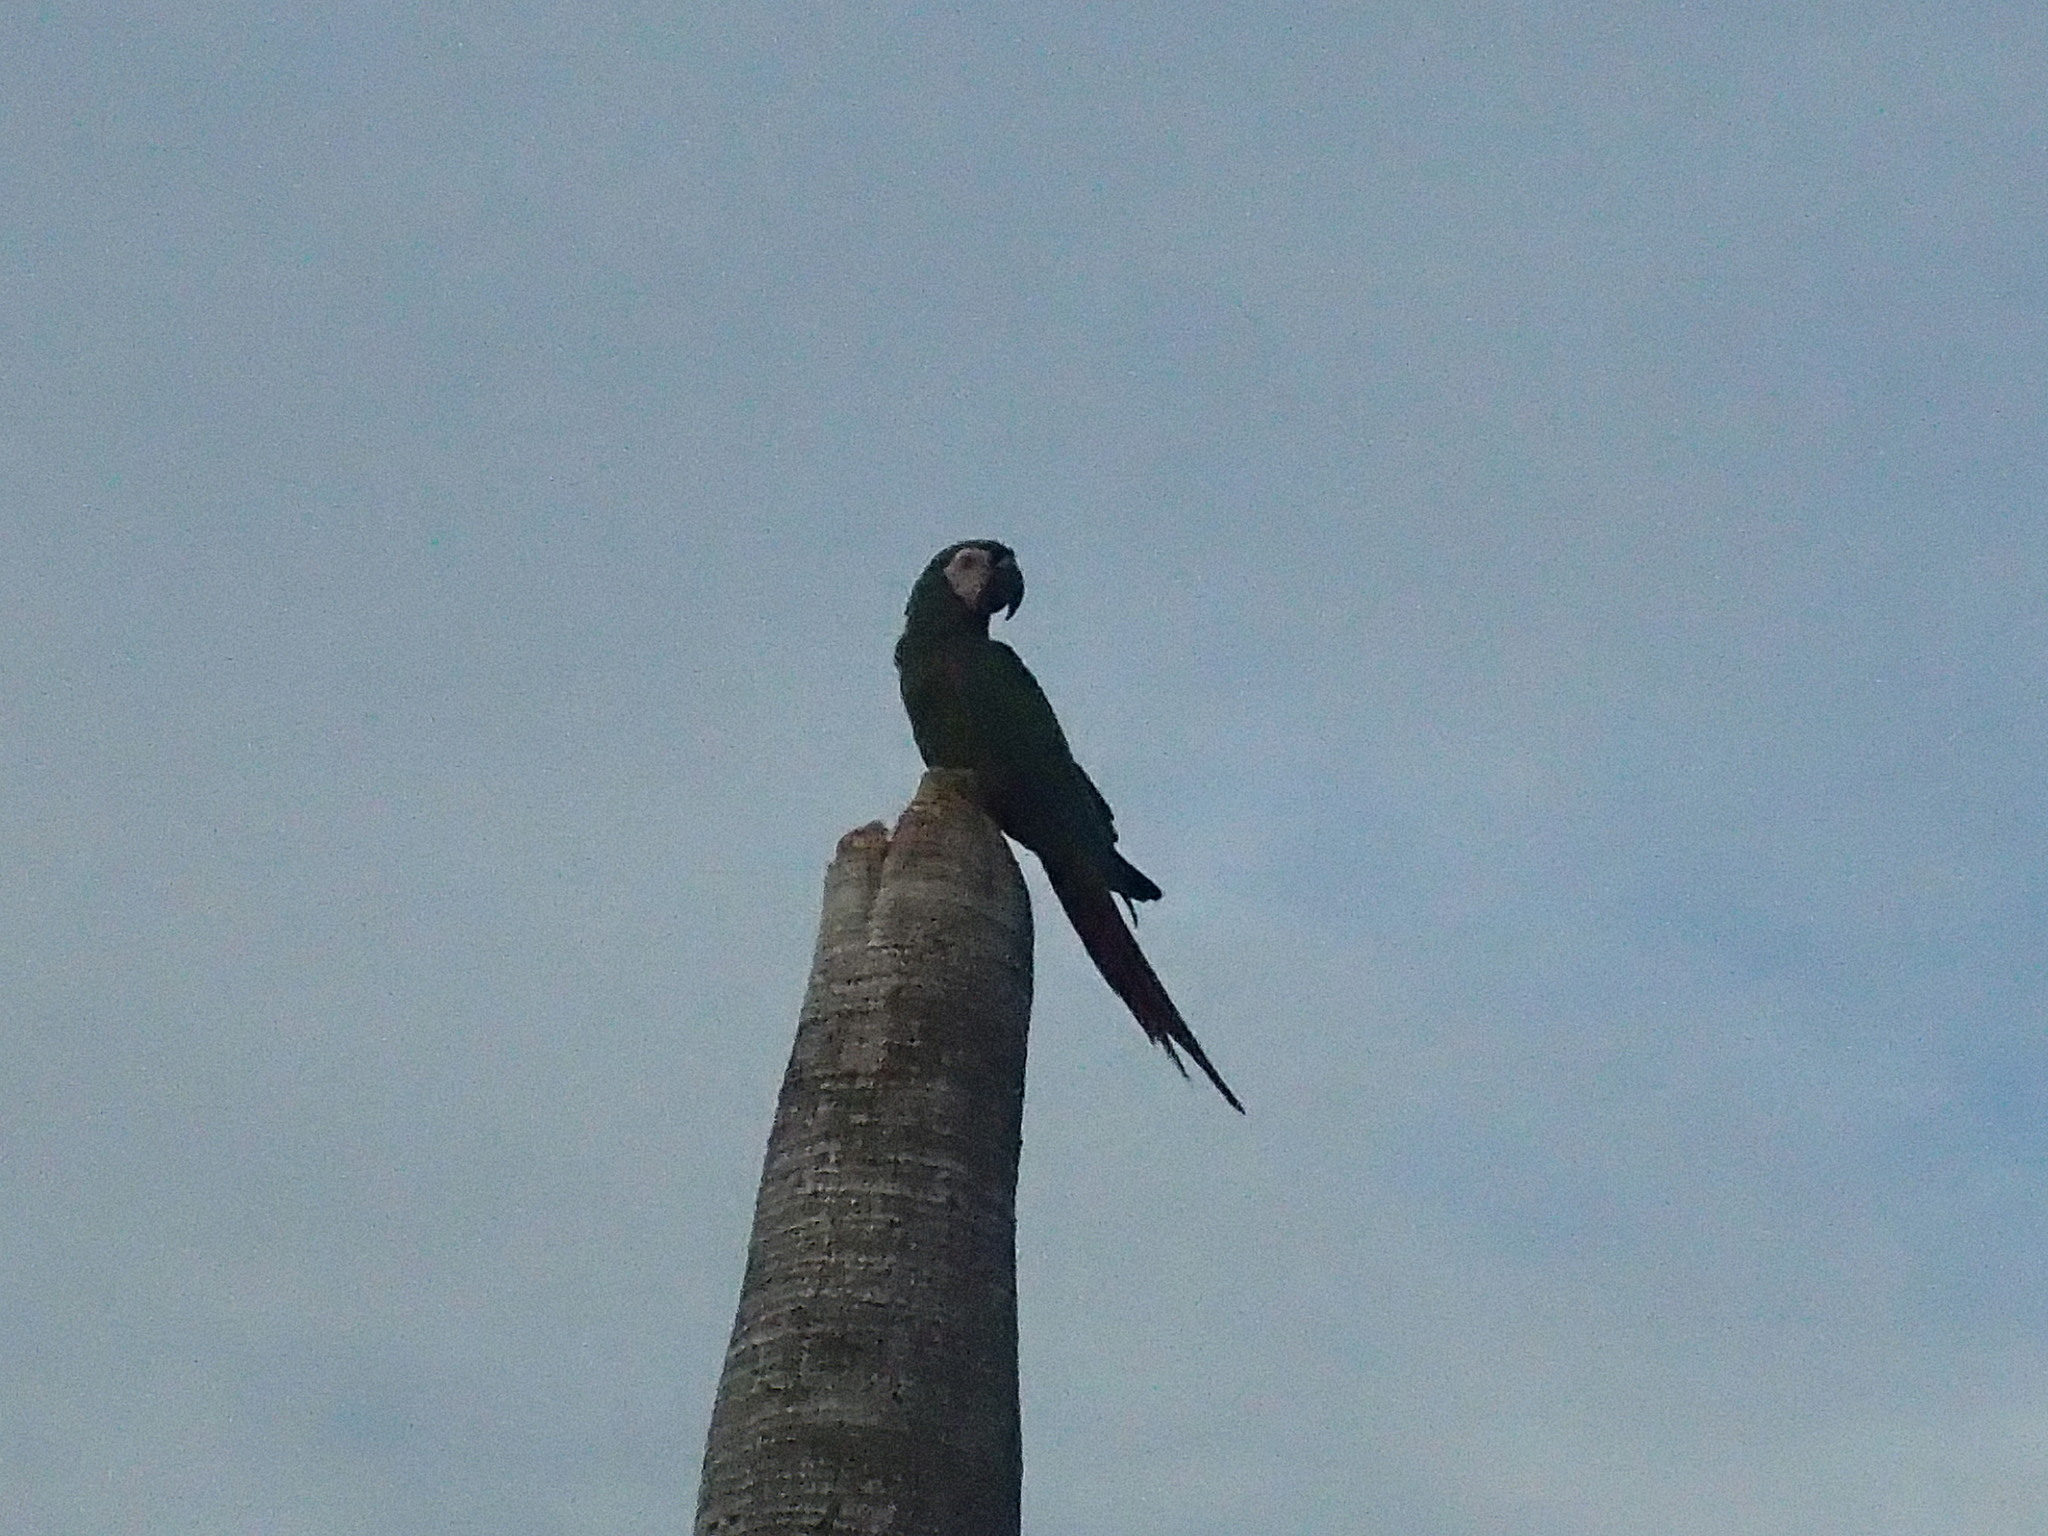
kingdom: Animalia
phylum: Chordata
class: Aves
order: Psittaciformes
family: Psittacidae
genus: Ara
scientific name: Ara severus
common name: Chestnut-fronted macaw
